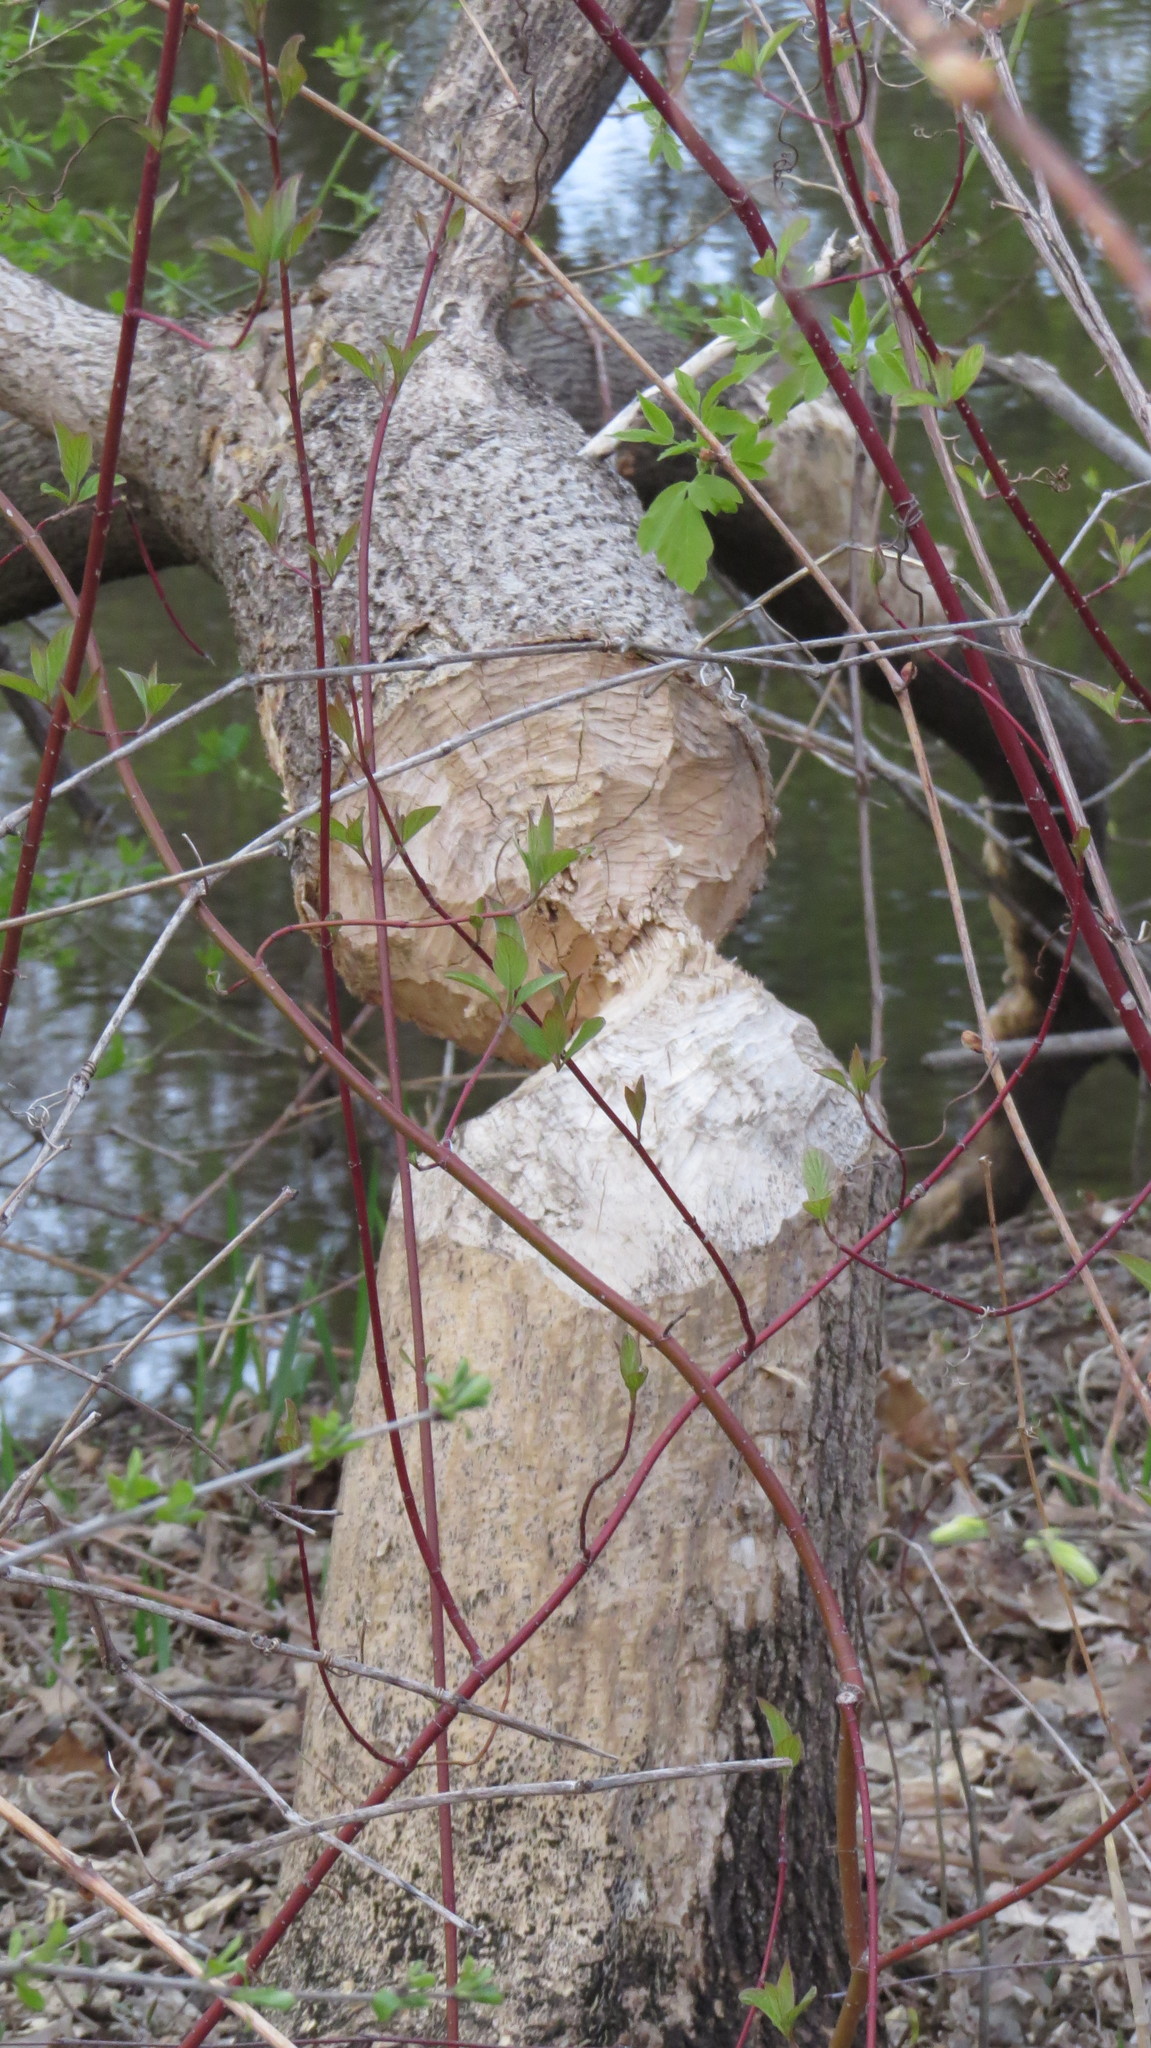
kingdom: Animalia
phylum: Chordata
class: Mammalia
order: Rodentia
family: Castoridae
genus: Castor
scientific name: Castor canadensis
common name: American beaver
